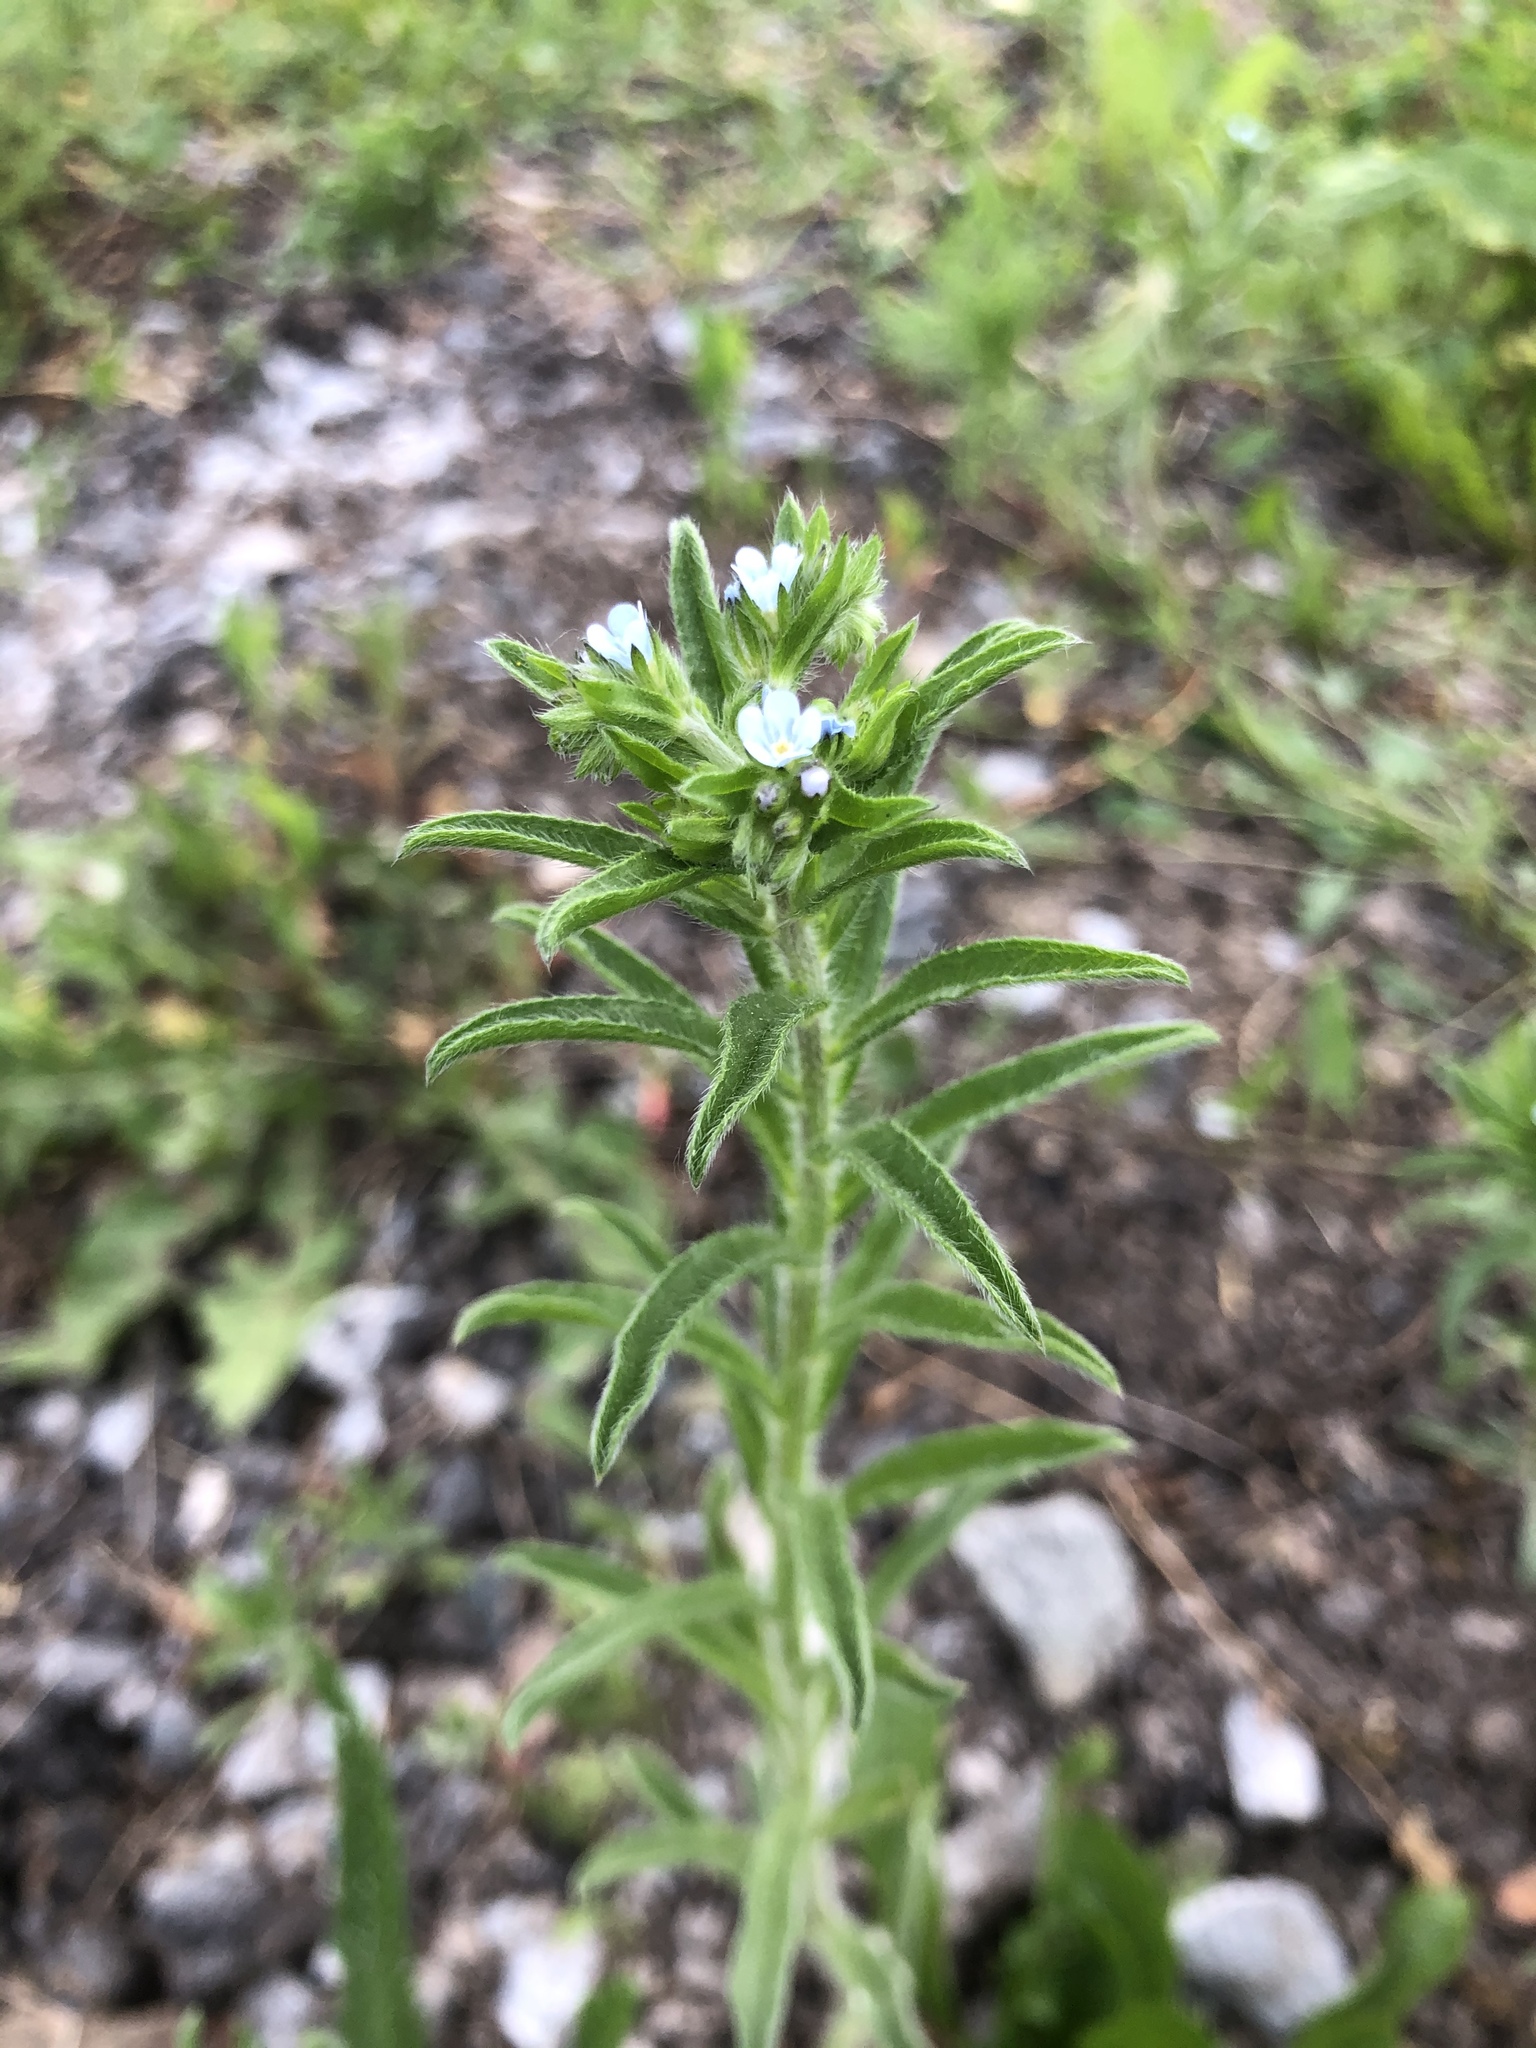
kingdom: Plantae
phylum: Tracheophyta
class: Magnoliopsida
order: Boraginales
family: Boraginaceae
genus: Lappula
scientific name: Lappula squarrosa
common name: European stickseed
